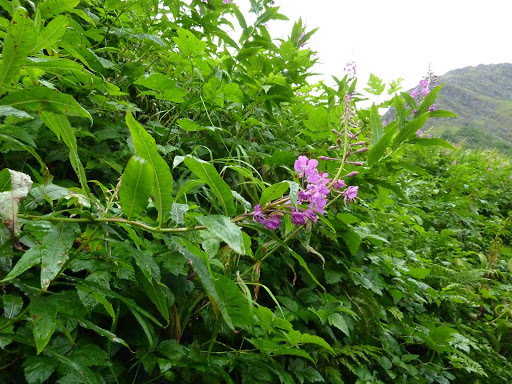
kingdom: Plantae
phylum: Tracheophyta
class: Magnoliopsida
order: Myrtales
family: Onagraceae
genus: Chamaenerion
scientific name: Chamaenerion angustifolium
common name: Fireweed
